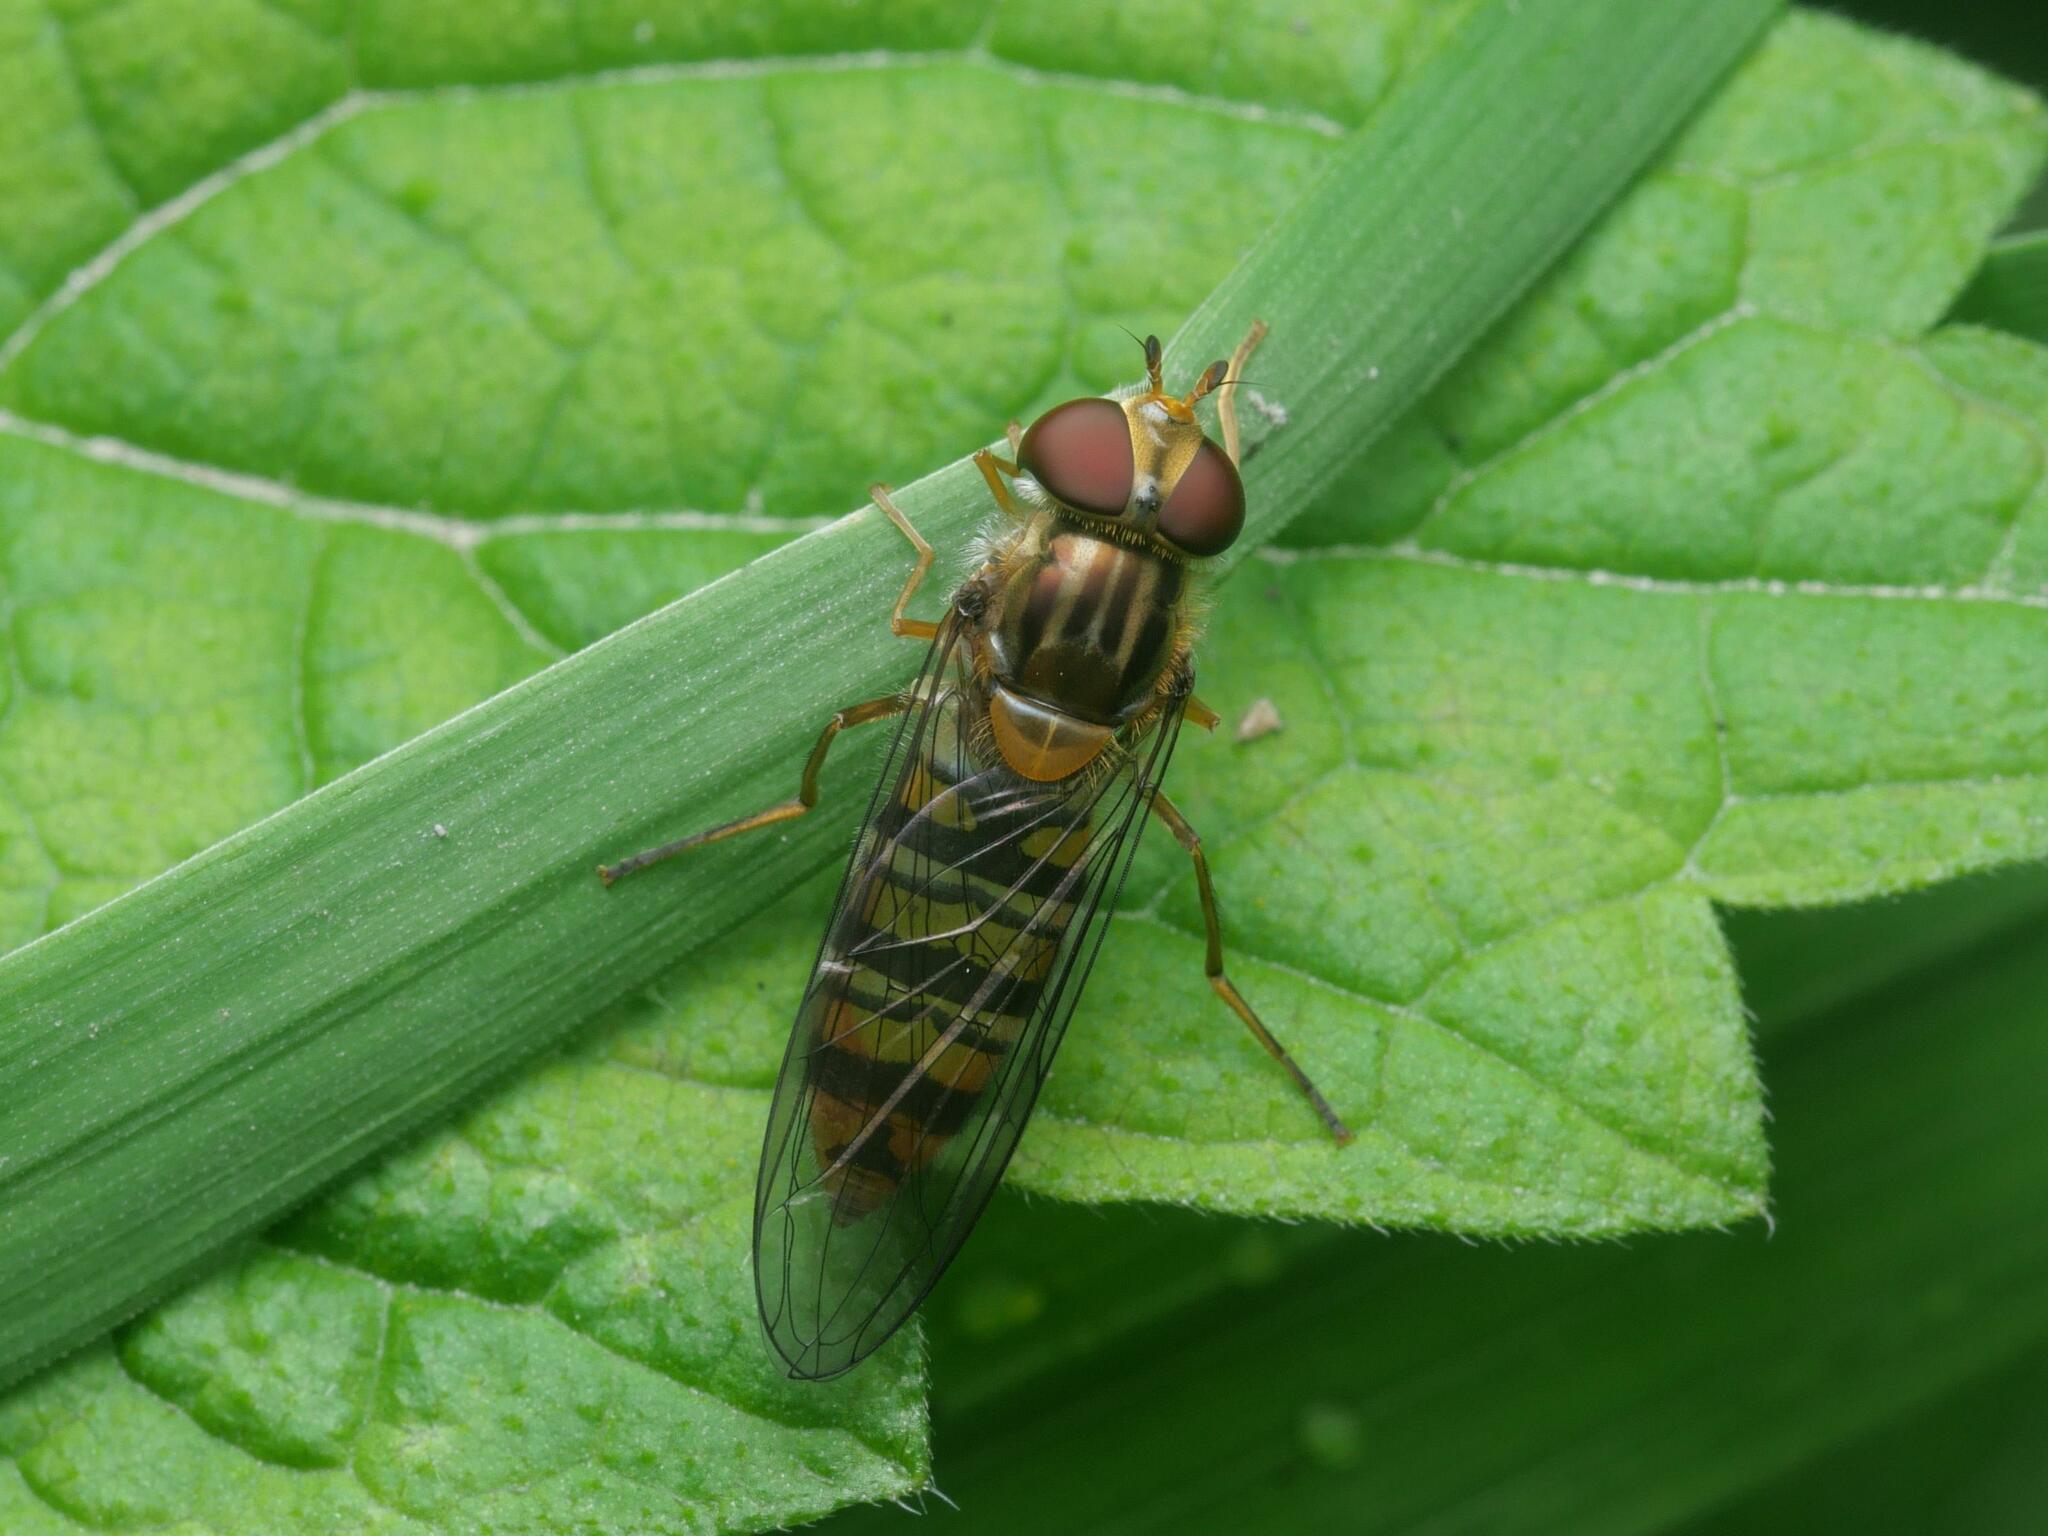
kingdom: Animalia
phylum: Arthropoda
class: Insecta
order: Diptera
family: Syrphidae
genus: Episyrphus
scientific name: Episyrphus balteatus
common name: Marmalade hoverfly
